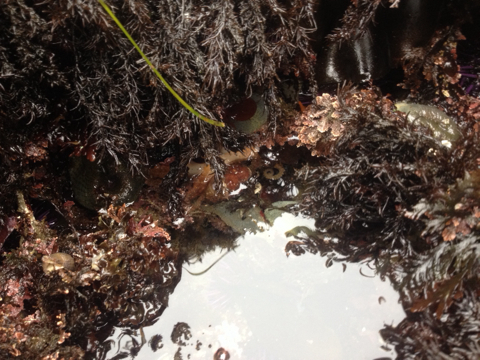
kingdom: Animalia
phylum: Mollusca
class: Cephalopoda
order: Octopoda
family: Octopodidae
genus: Octopus
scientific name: Octopus rubescens
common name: East pacific red octopus
